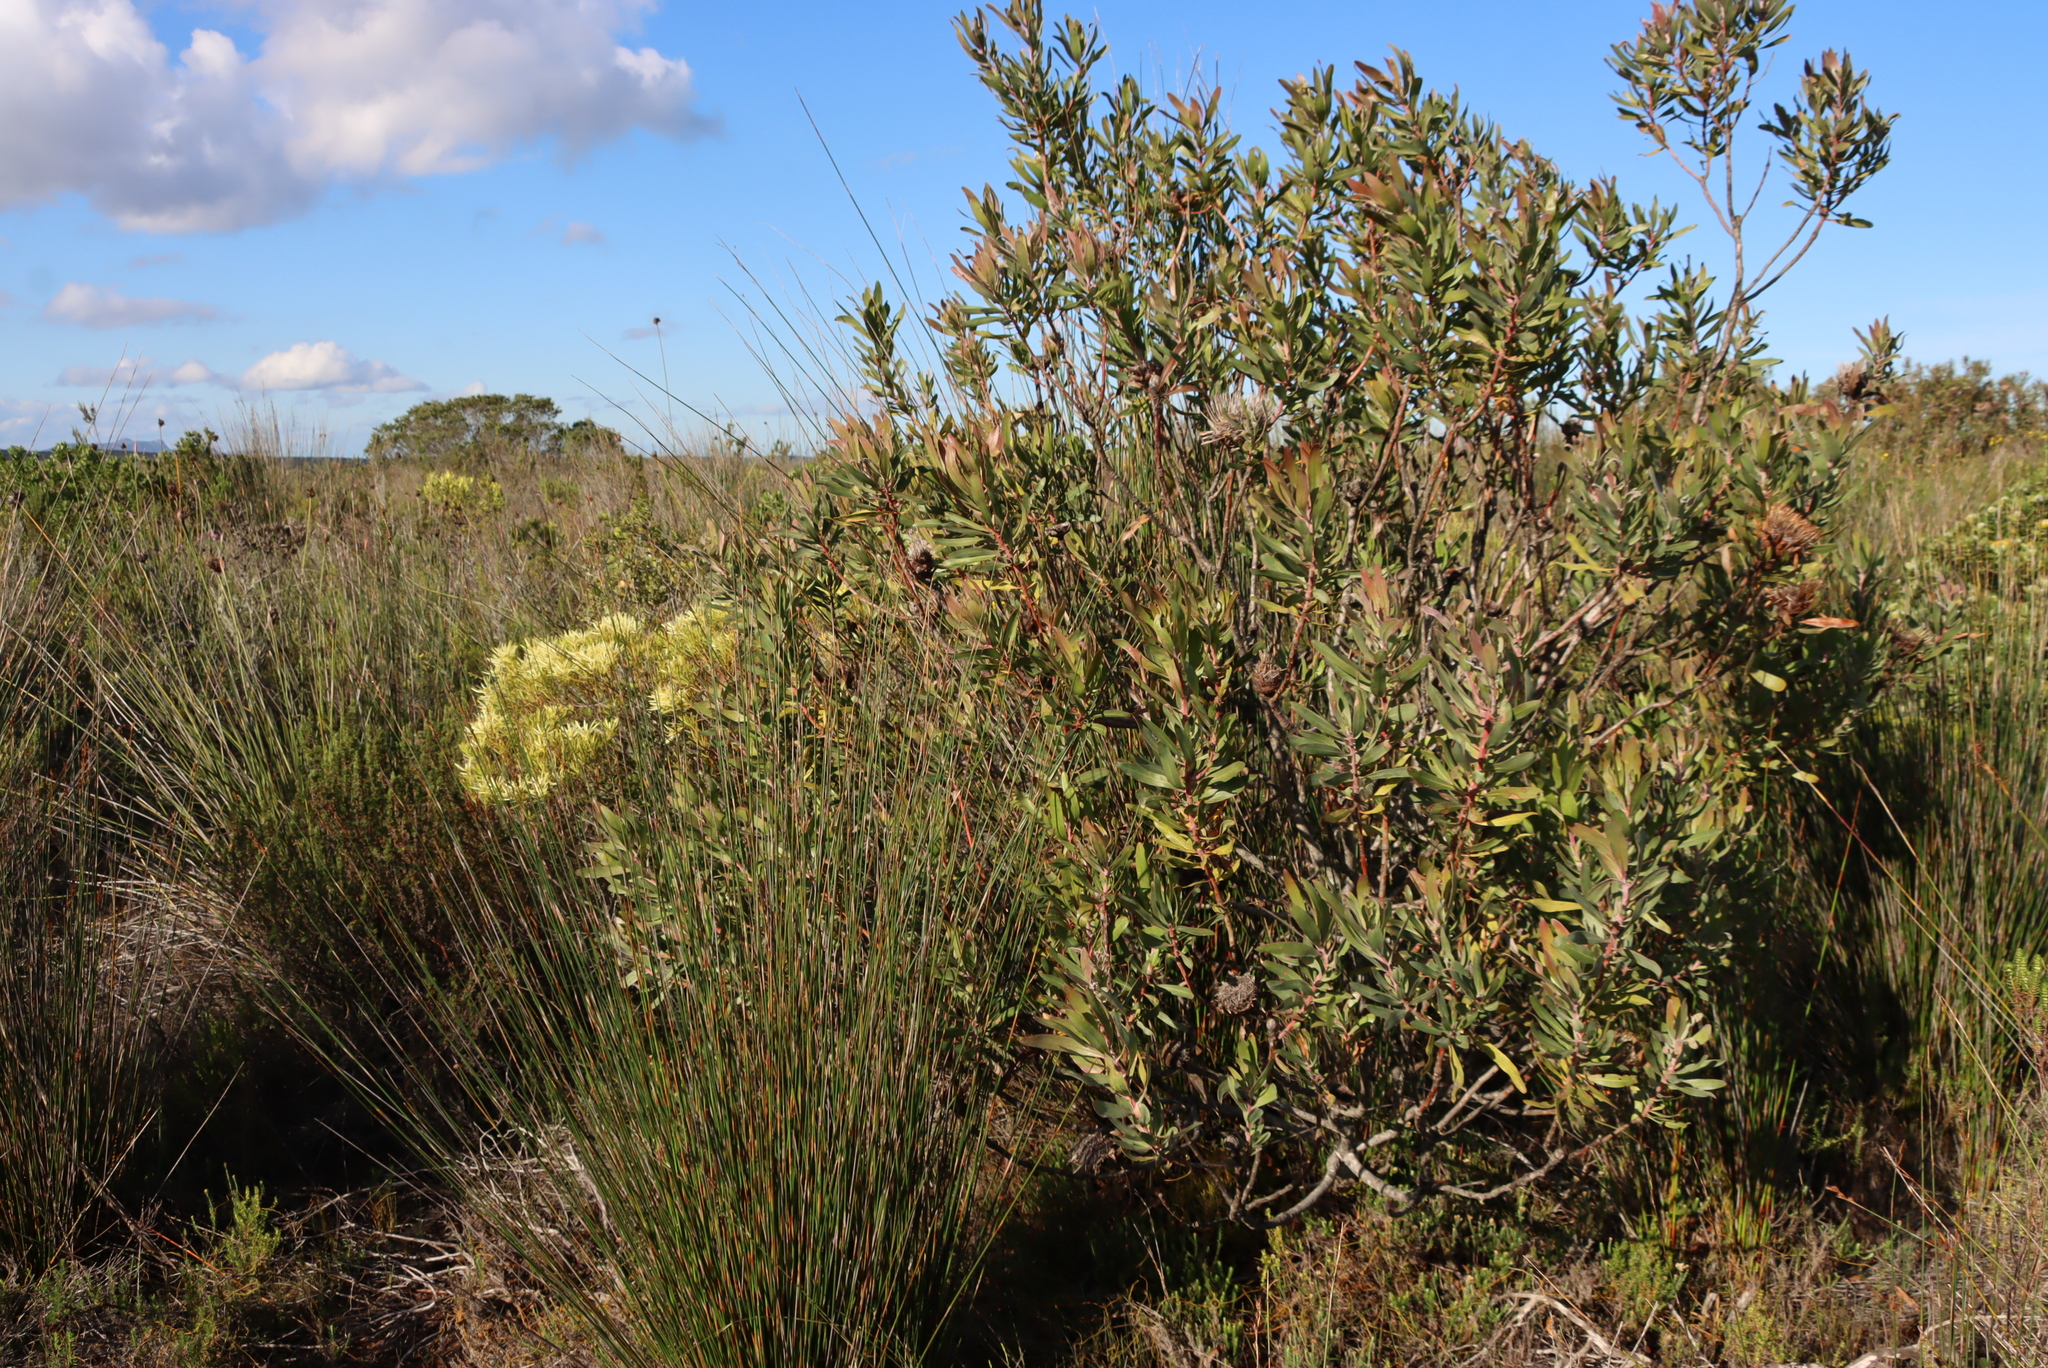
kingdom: Plantae
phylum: Tracheophyta
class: Magnoliopsida
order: Proteales
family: Proteaceae
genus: Protea
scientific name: Protea susannae
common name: Foetid-leaf sugarbush
